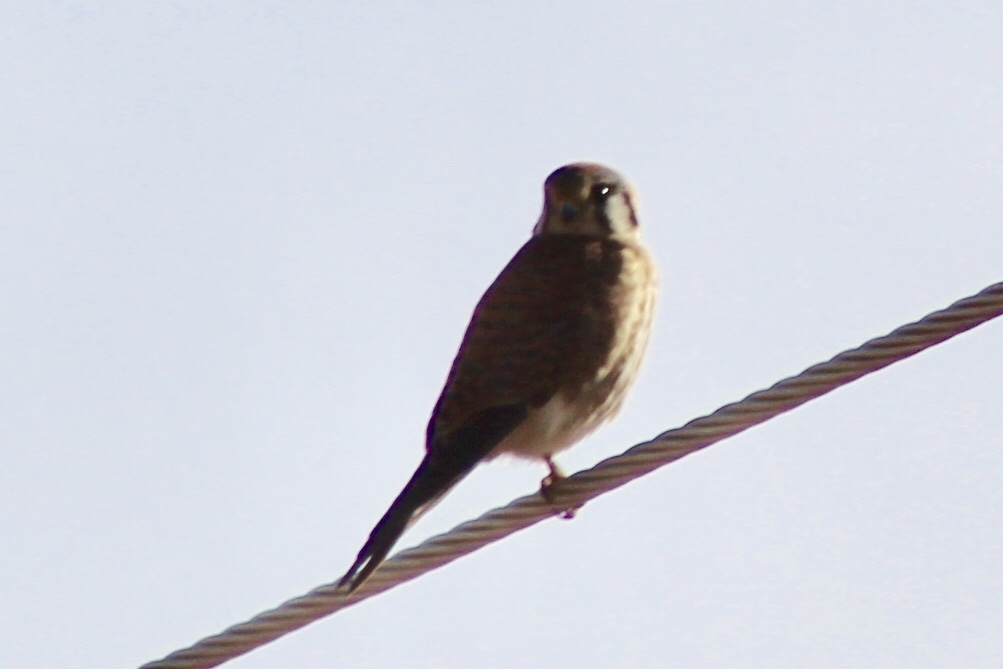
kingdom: Animalia
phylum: Chordata
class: Aves
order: Falconiformes
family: Falconidae
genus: Falco
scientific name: Falco sparverius
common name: American kestrel
